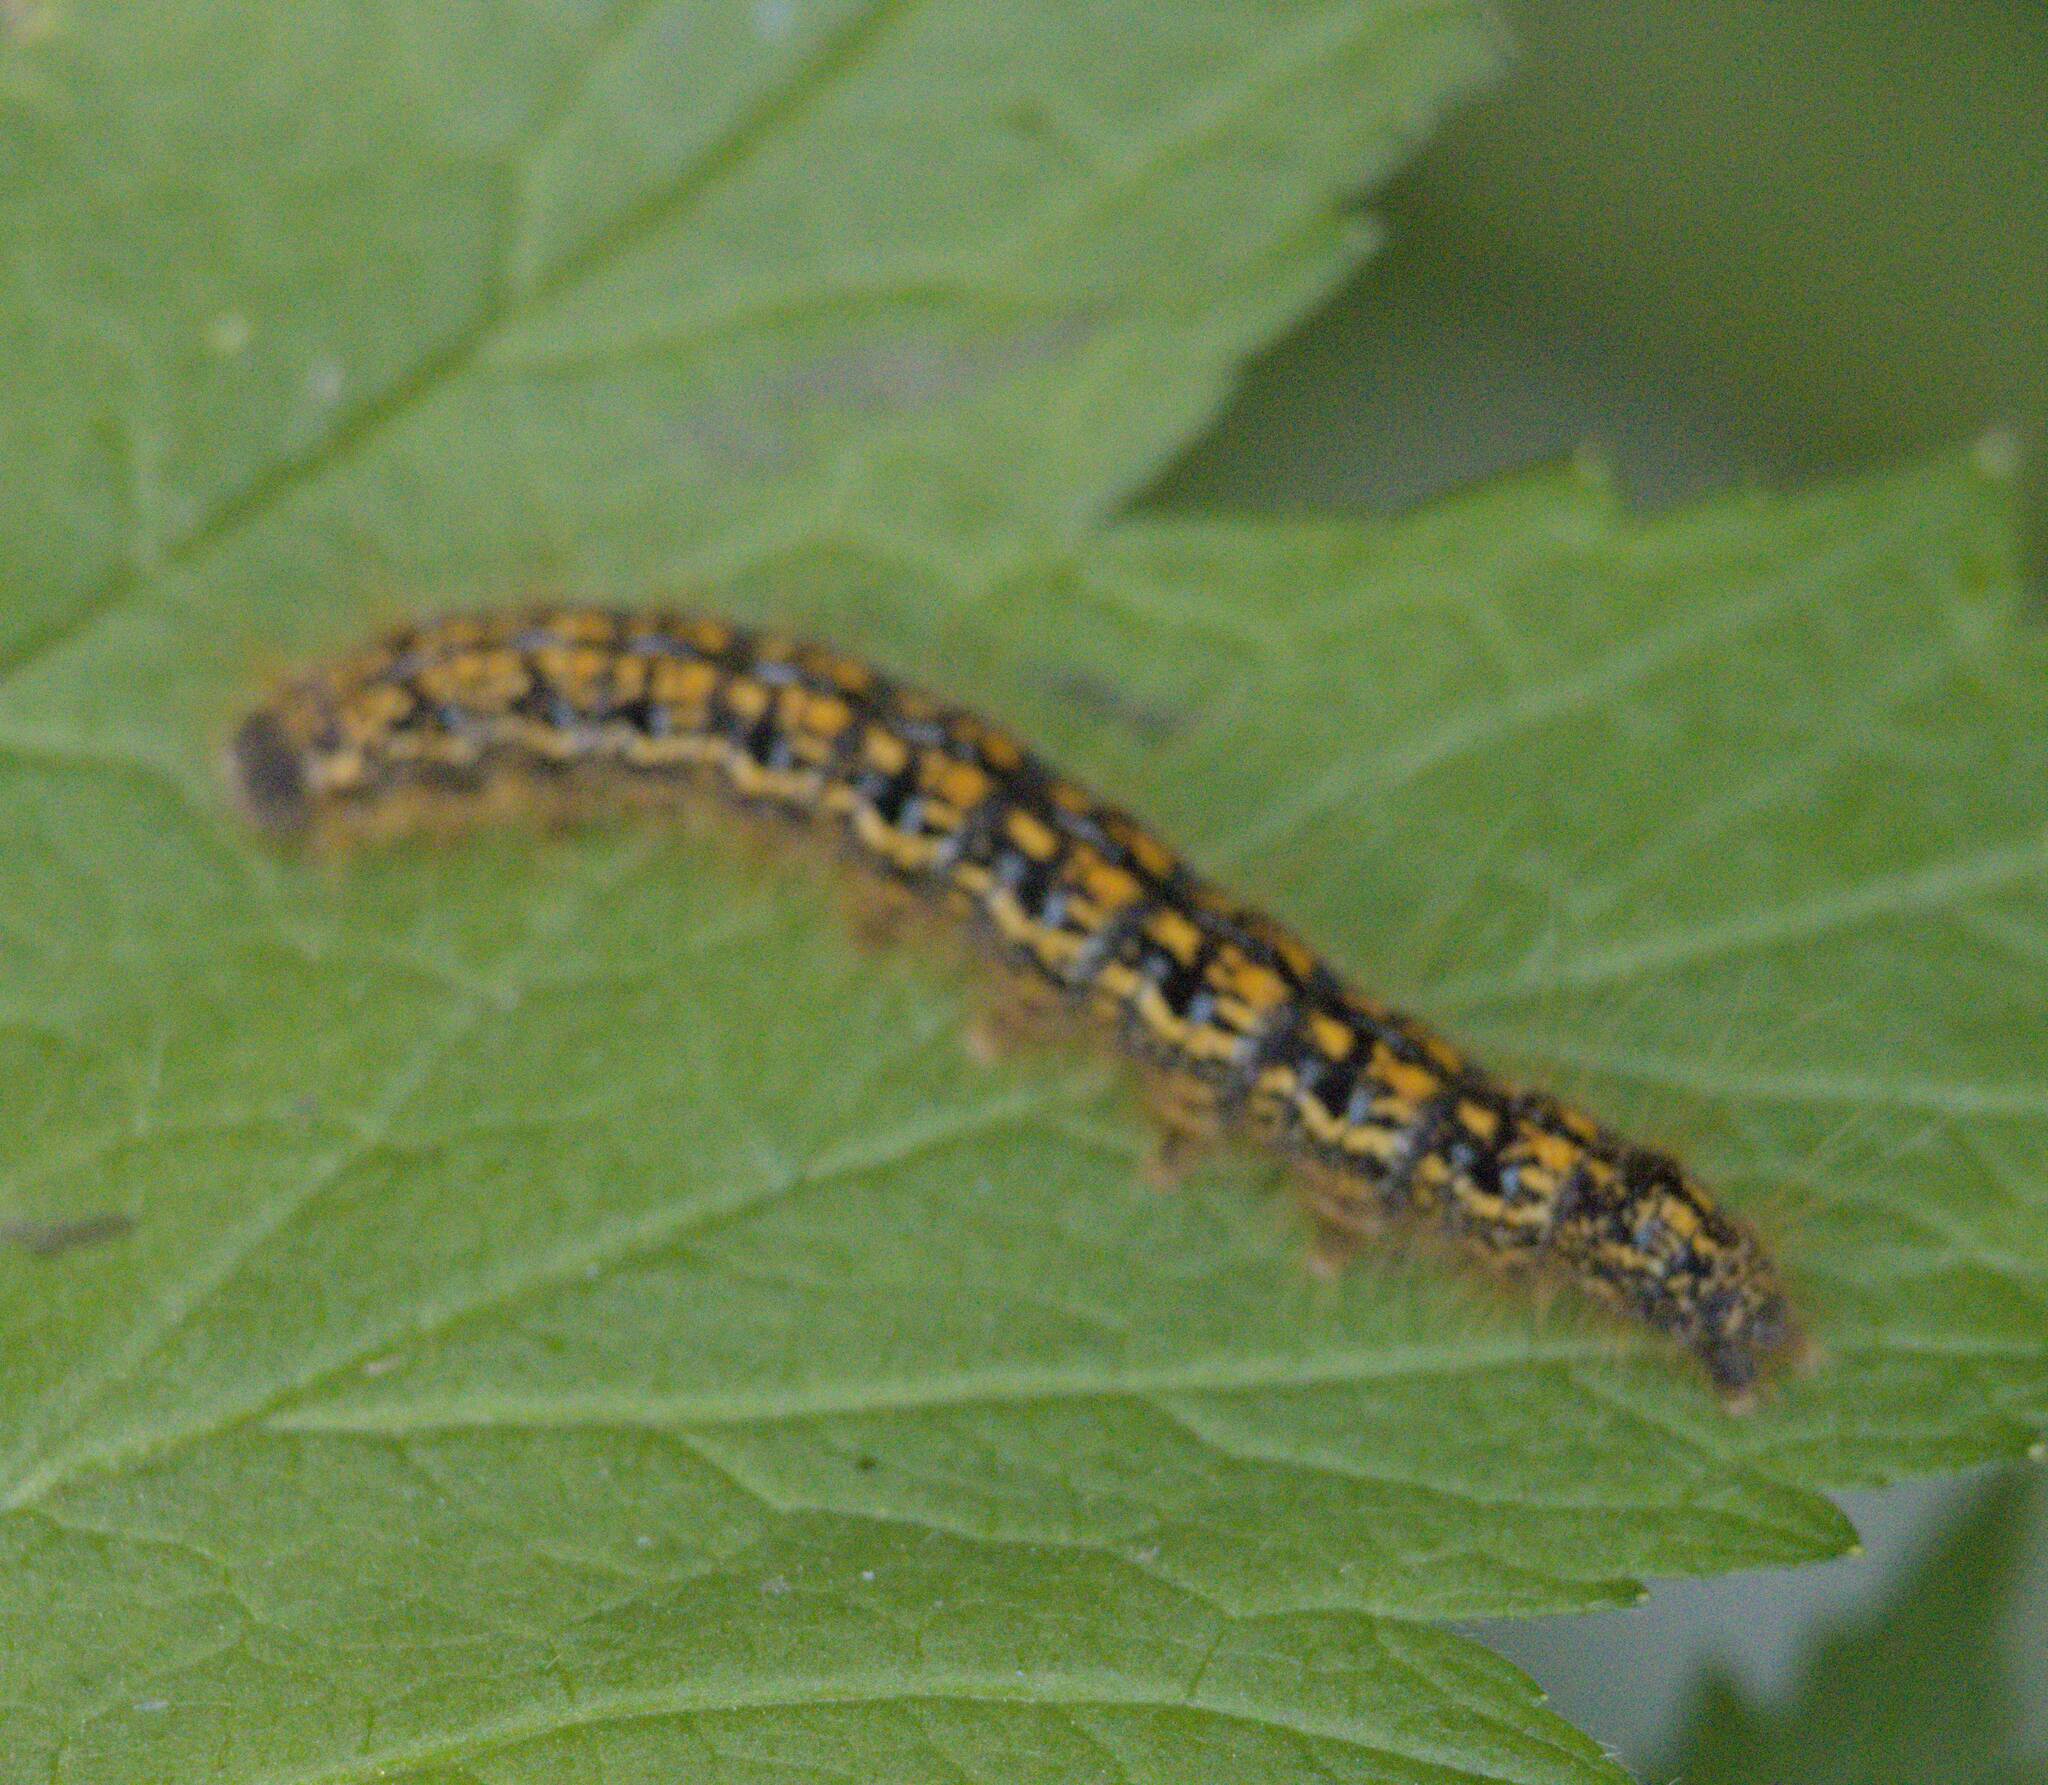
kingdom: Animalia
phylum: Arthropoda
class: Insecta
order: Lepidoptera
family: Lasiocampidae
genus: Malacosoma
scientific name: Malacosoma californica
